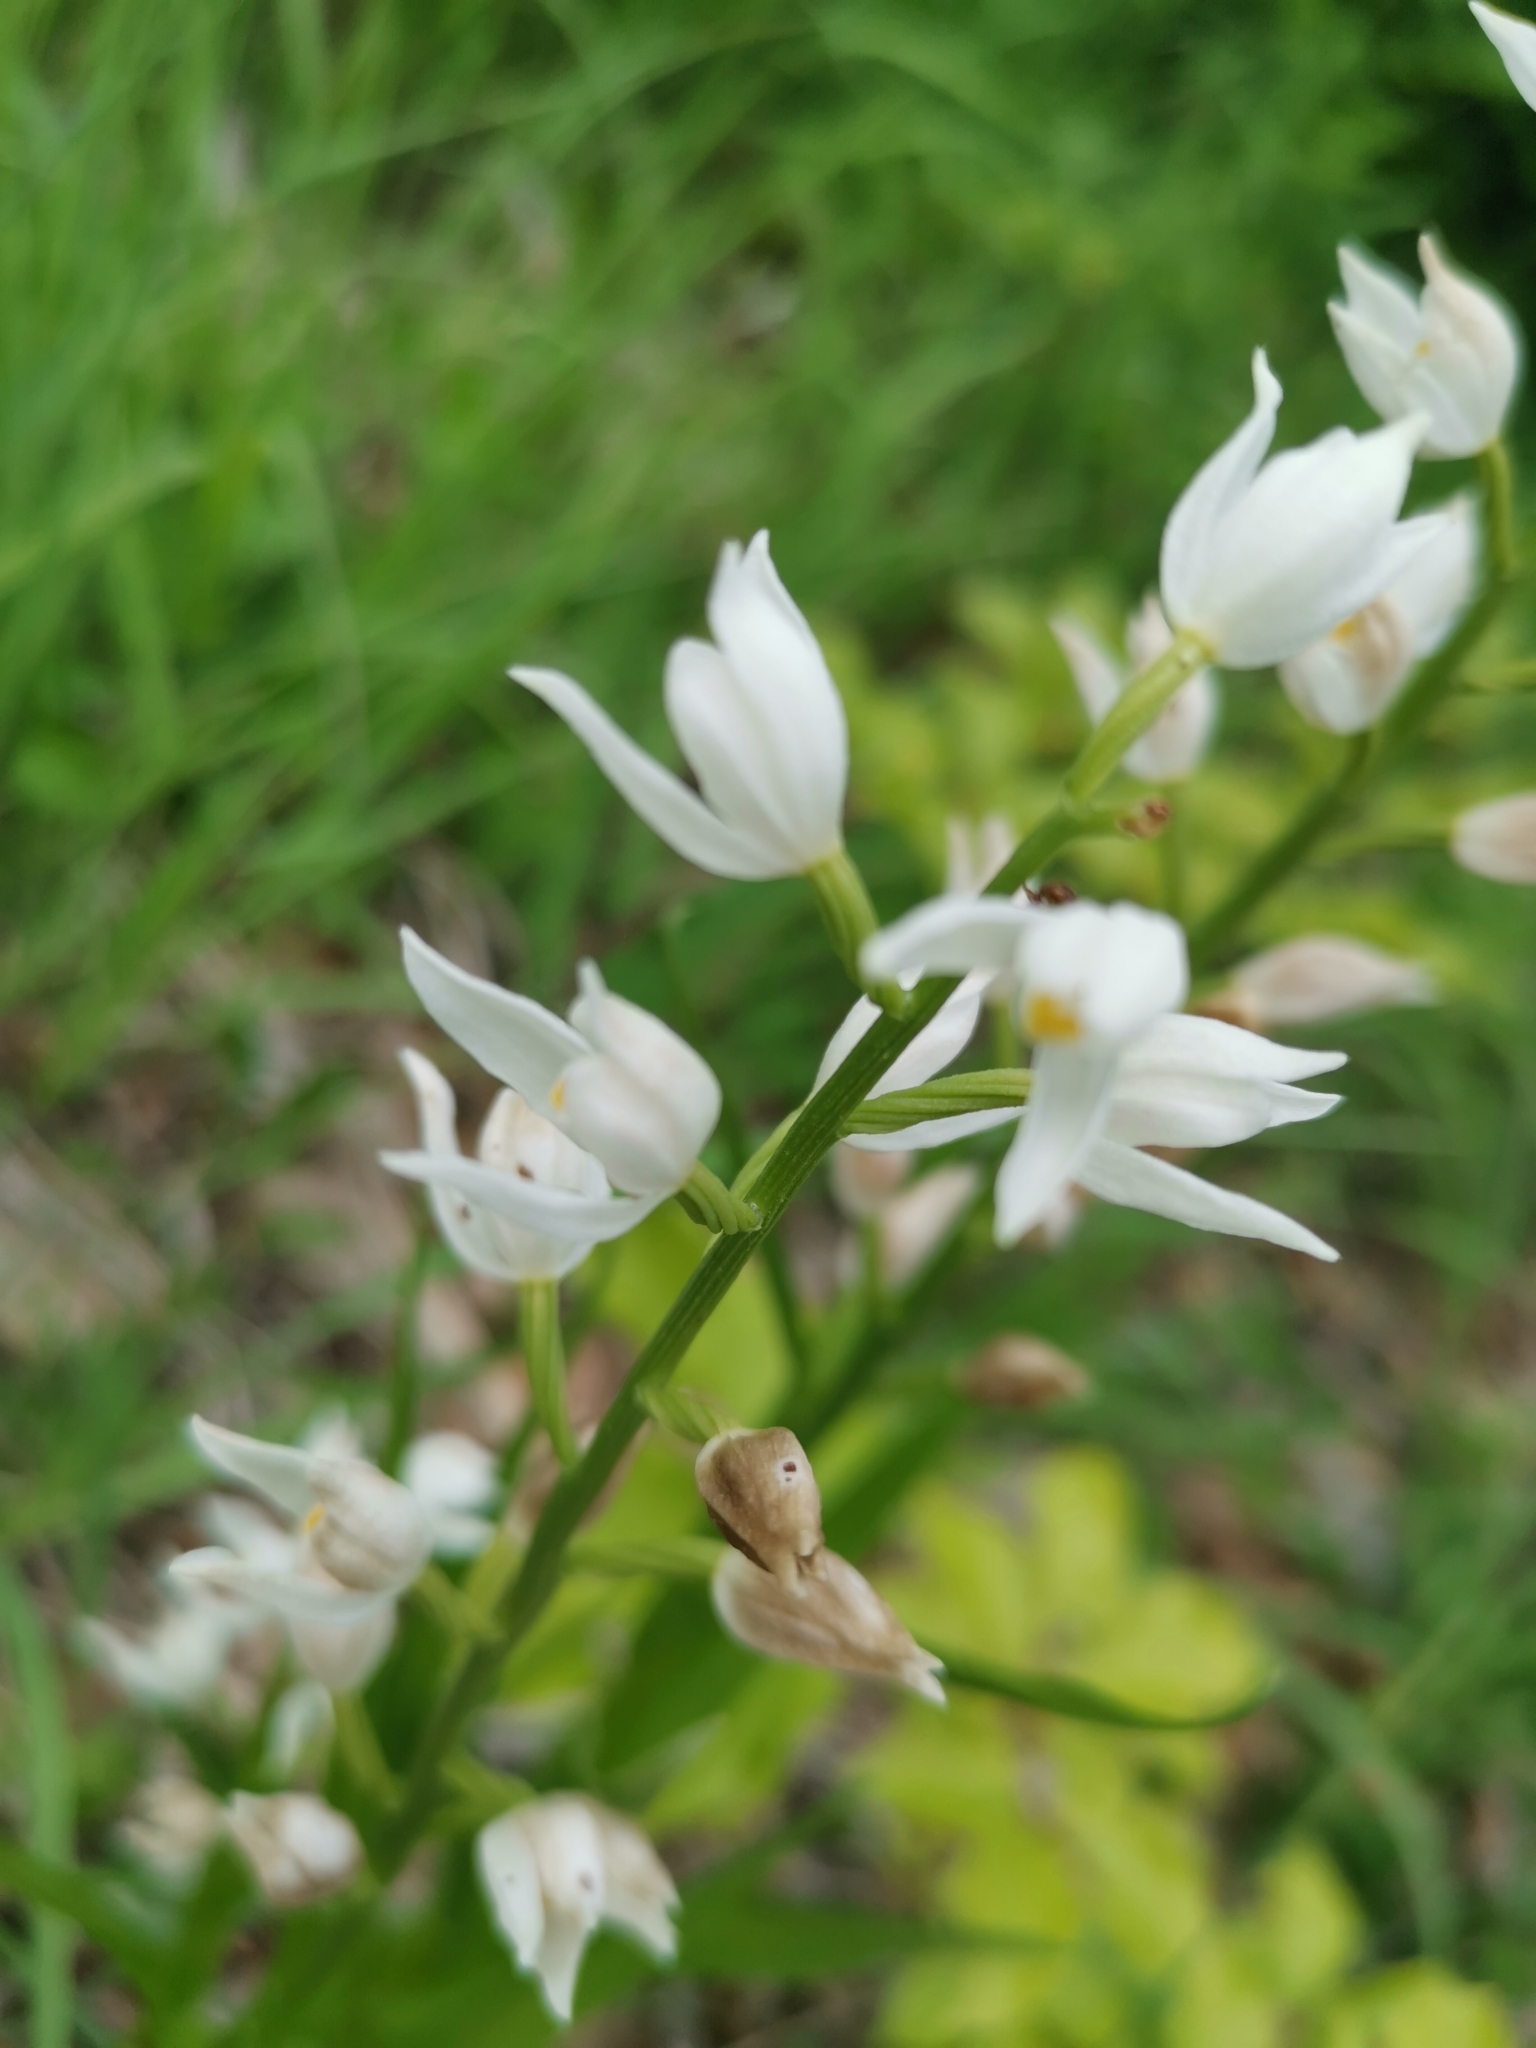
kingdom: Plantae
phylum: Tracheophyta
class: Liliopsida
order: Asparagales
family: Orchidaceae
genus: Cephalanthera
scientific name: Cephalanthera longifolia
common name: Narrow-leaved helleborine
